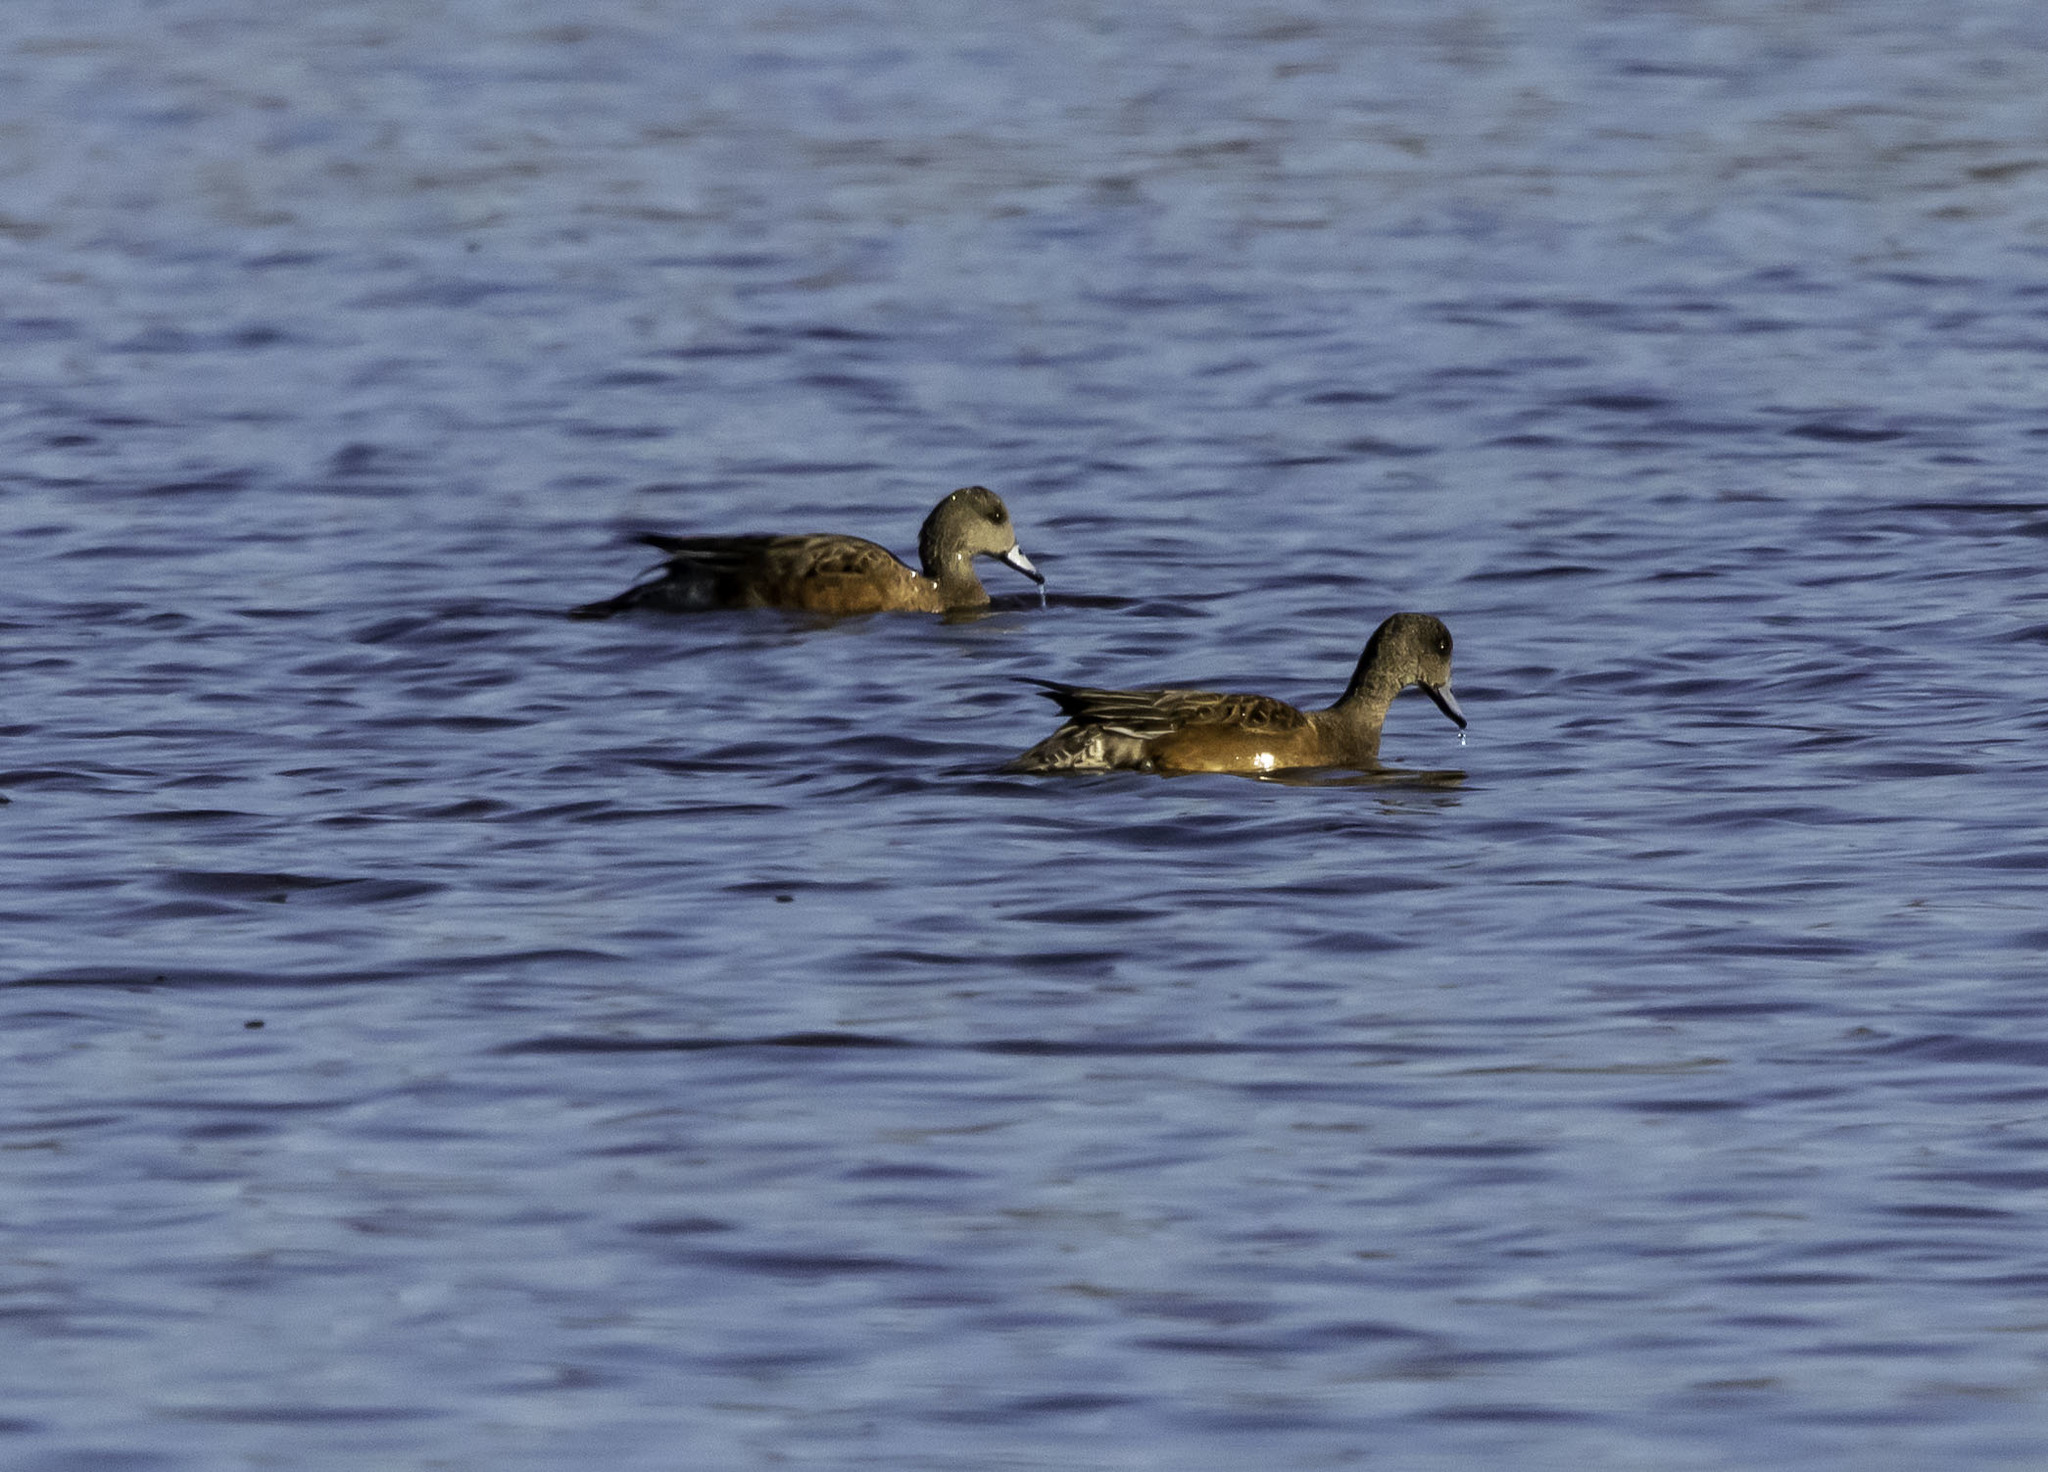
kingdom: Animalia
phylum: Chordata
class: Aves
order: Anseriformes
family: Anatidae
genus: Mareca
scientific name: Mareca americana
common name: American wigeon
